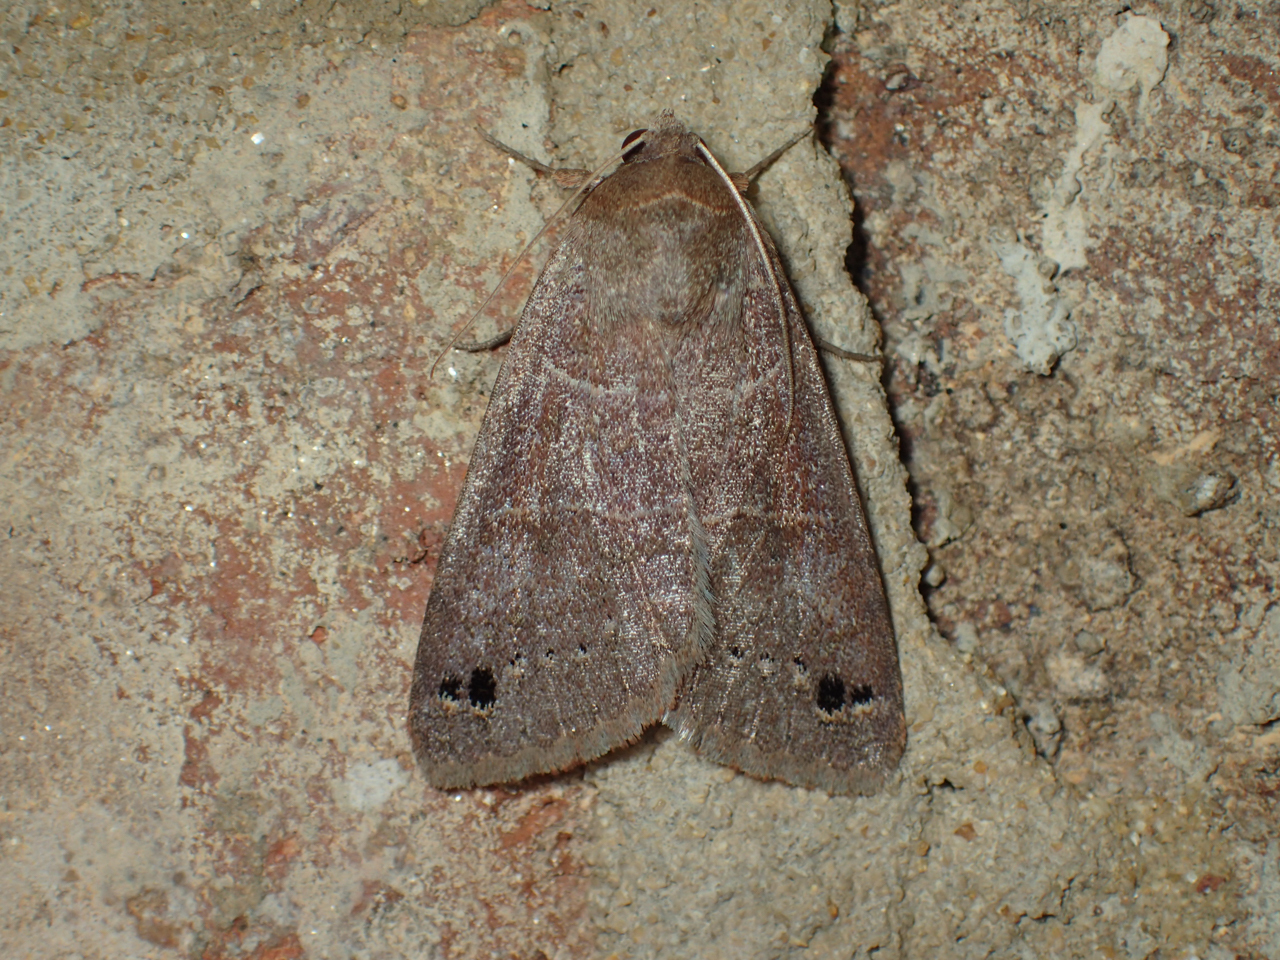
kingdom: Animalia
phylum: Arthropoda
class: Insecta
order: Lepidoptera
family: Erebidae
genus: Cissusa
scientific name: Cissusa spadix
